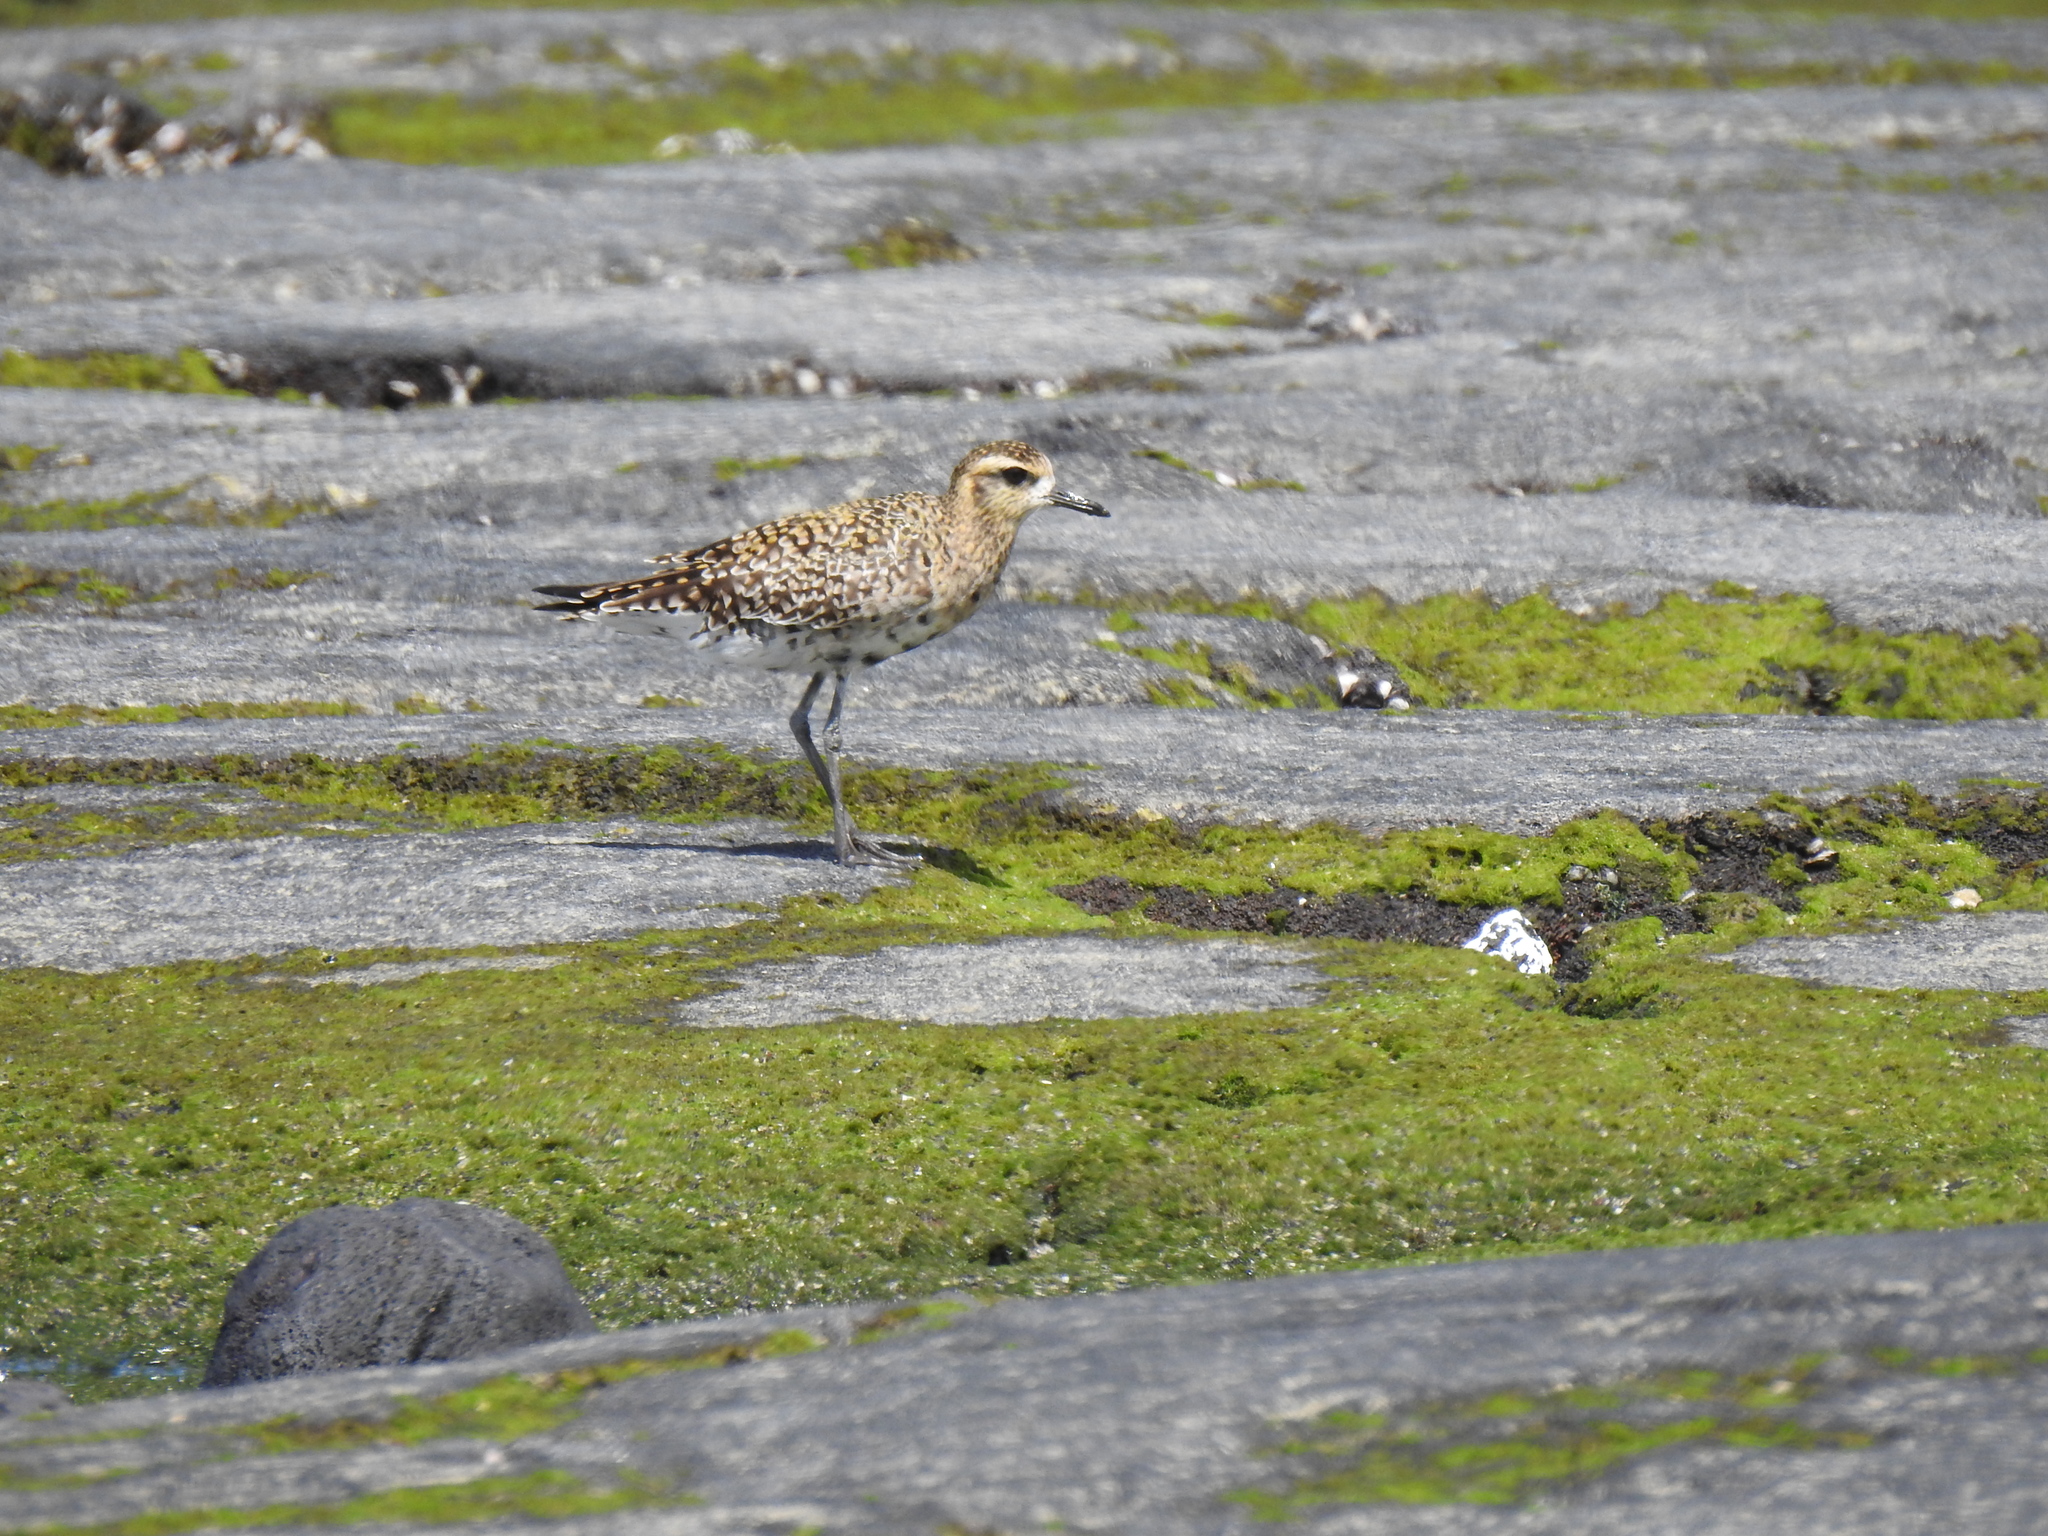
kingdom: Animalia
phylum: Chordata
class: Aves
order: Charadriiformes
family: Charadriidae
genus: Pluvialis
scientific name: Pluvialis fulva
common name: Pacific golden plover
